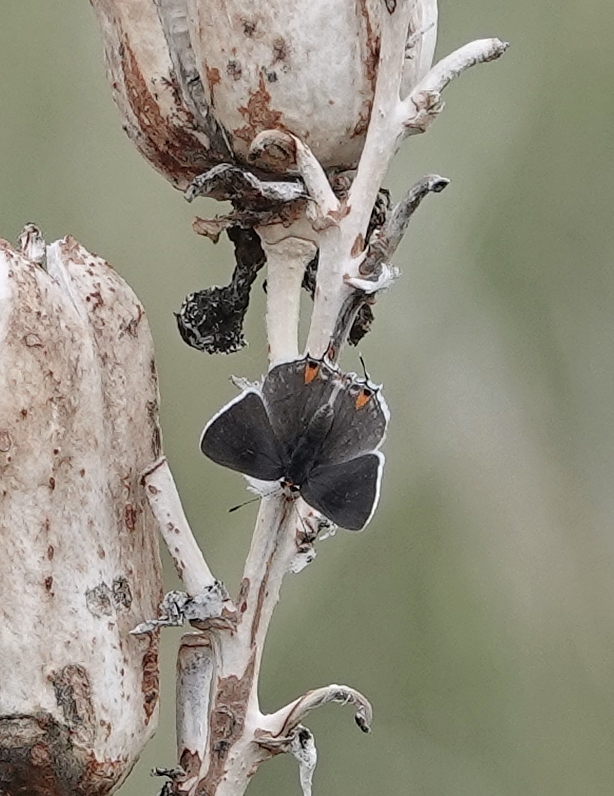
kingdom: Animalia
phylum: Arthropoda
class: Insecta
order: Lepidoptera
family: Lycaenidae
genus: Strymon
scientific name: Strymon melinus
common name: Gray hairstreak
